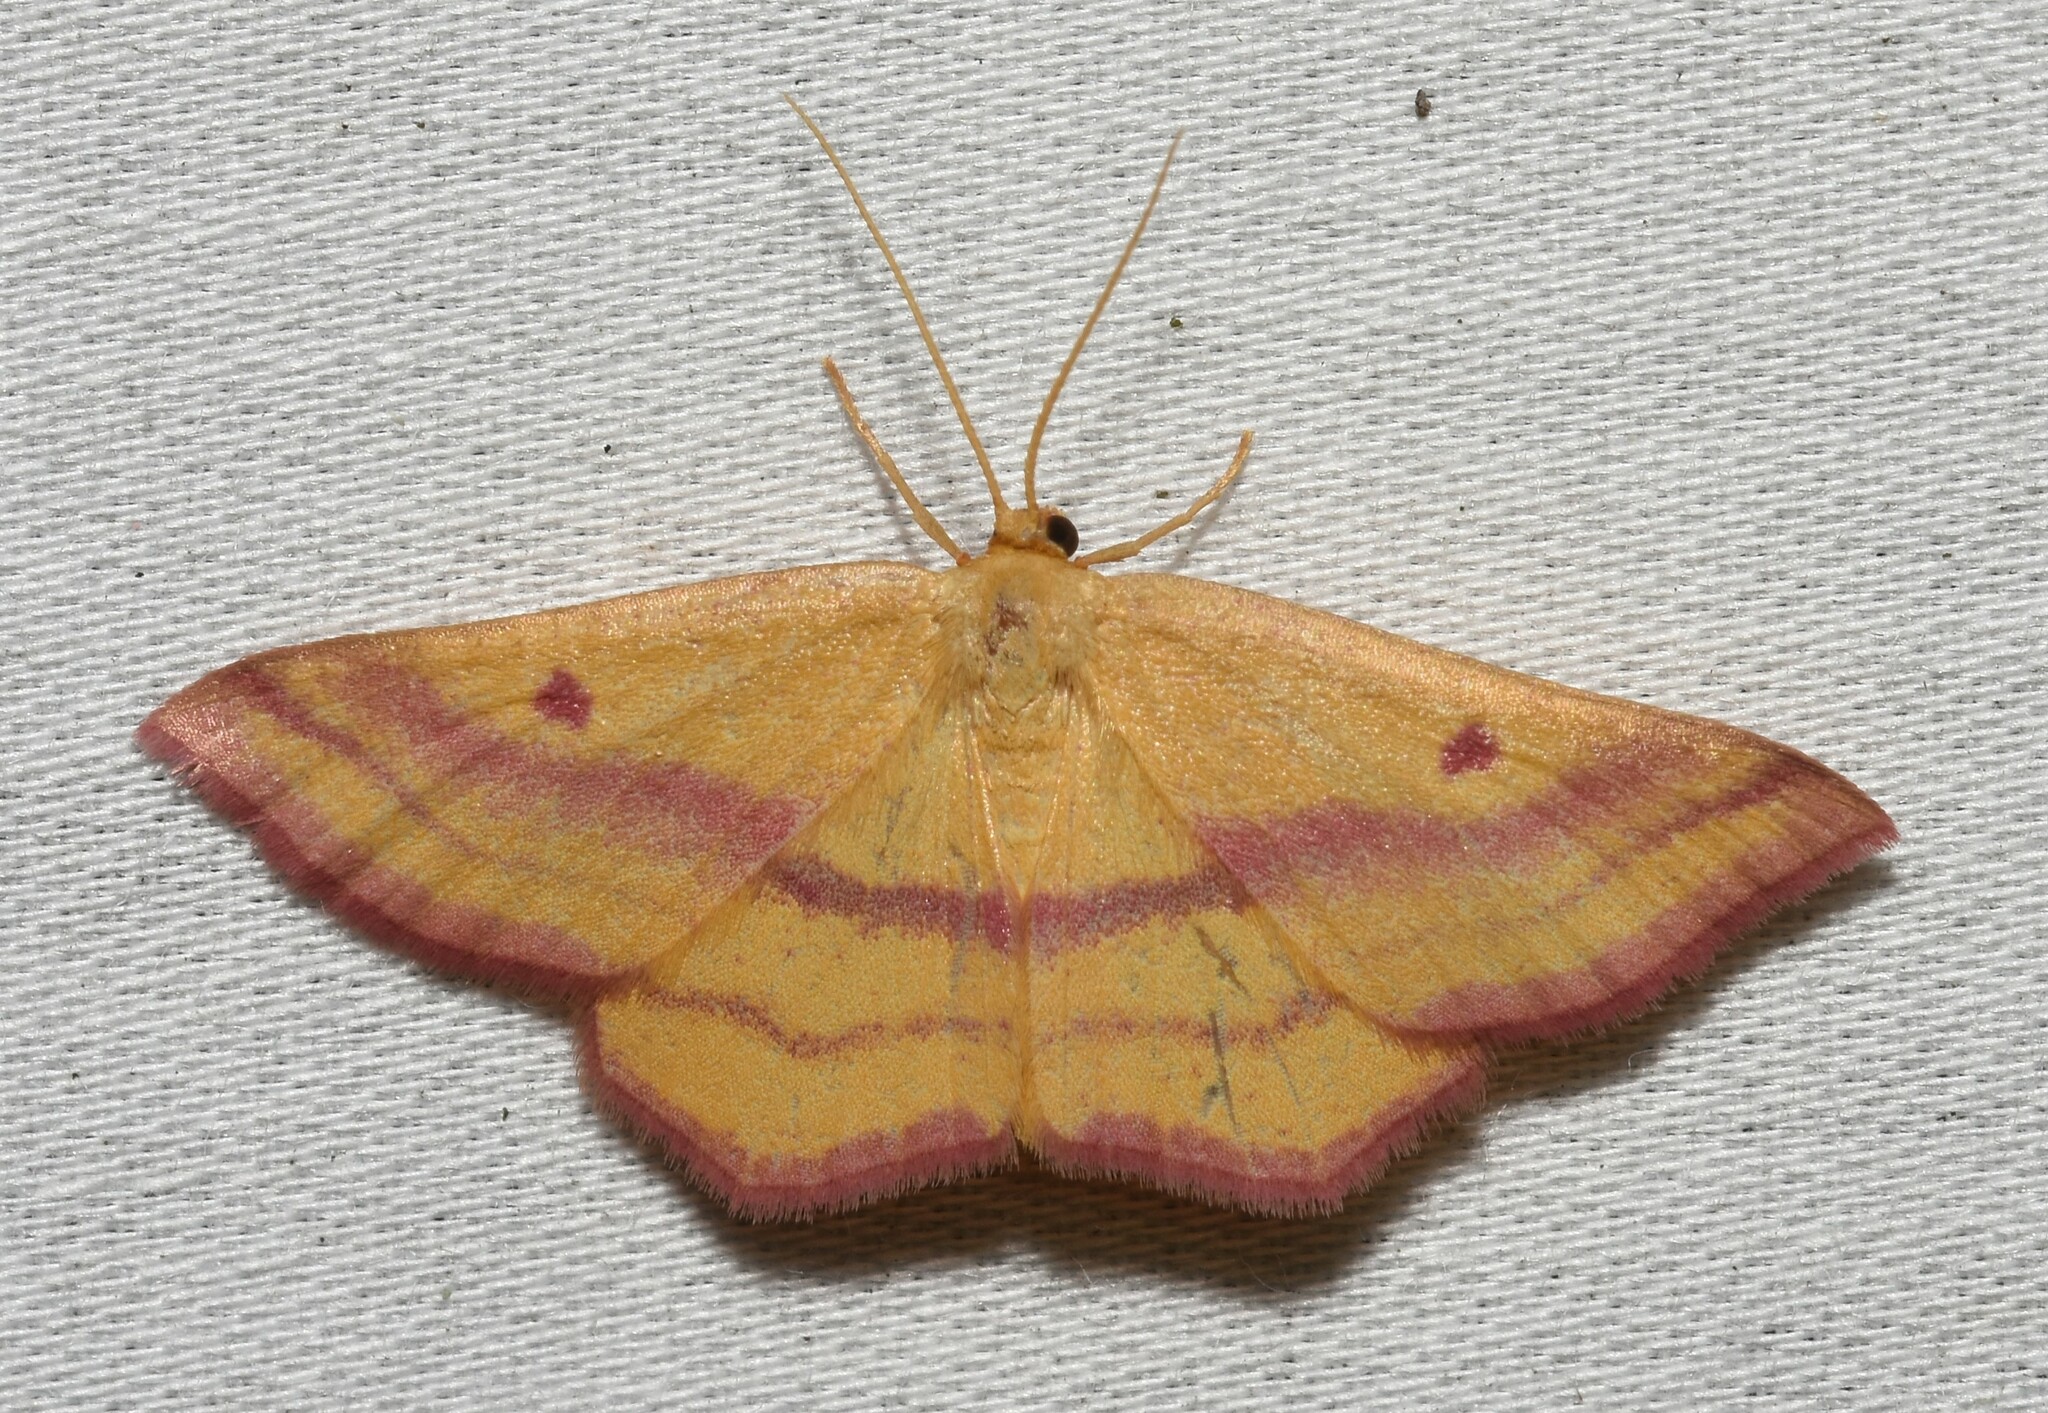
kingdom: Animalia
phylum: Arthropoda
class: Insecta
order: Lepidoptera
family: Geometridae
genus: Haematopis
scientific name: Haematopis grataria
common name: Chickweed geometer
